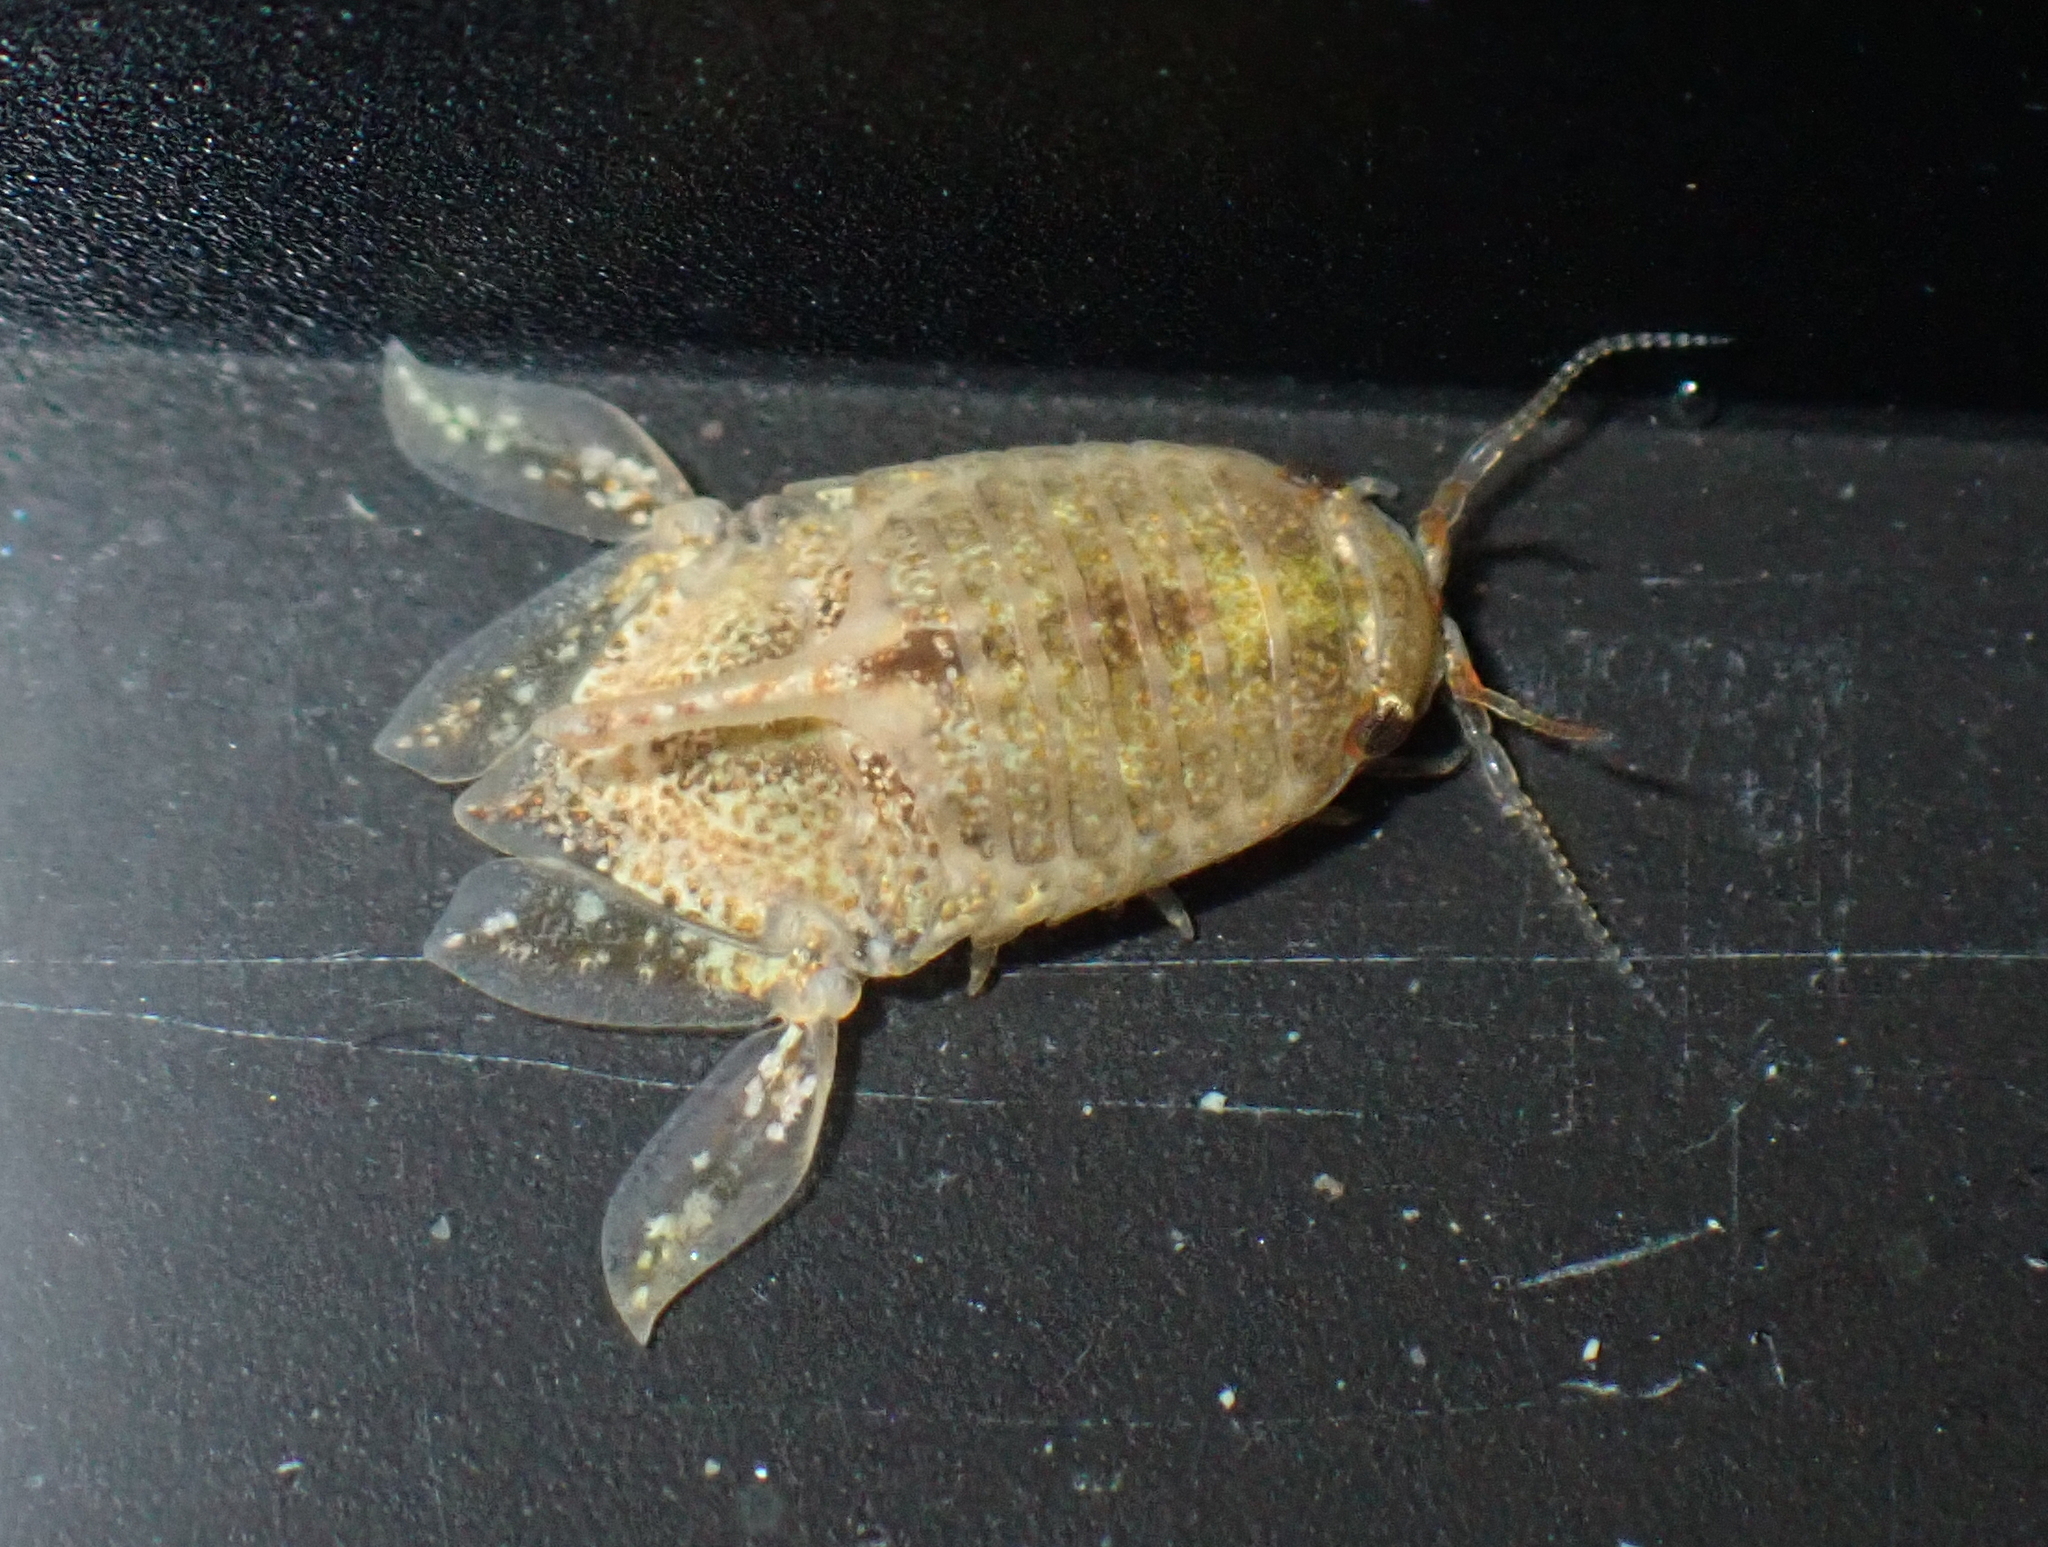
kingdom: Animalia
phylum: Arthropoda
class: Malacostraca
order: Isopoda
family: Sphaeromatidae
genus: Isocladus
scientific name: Isocladus armatus
